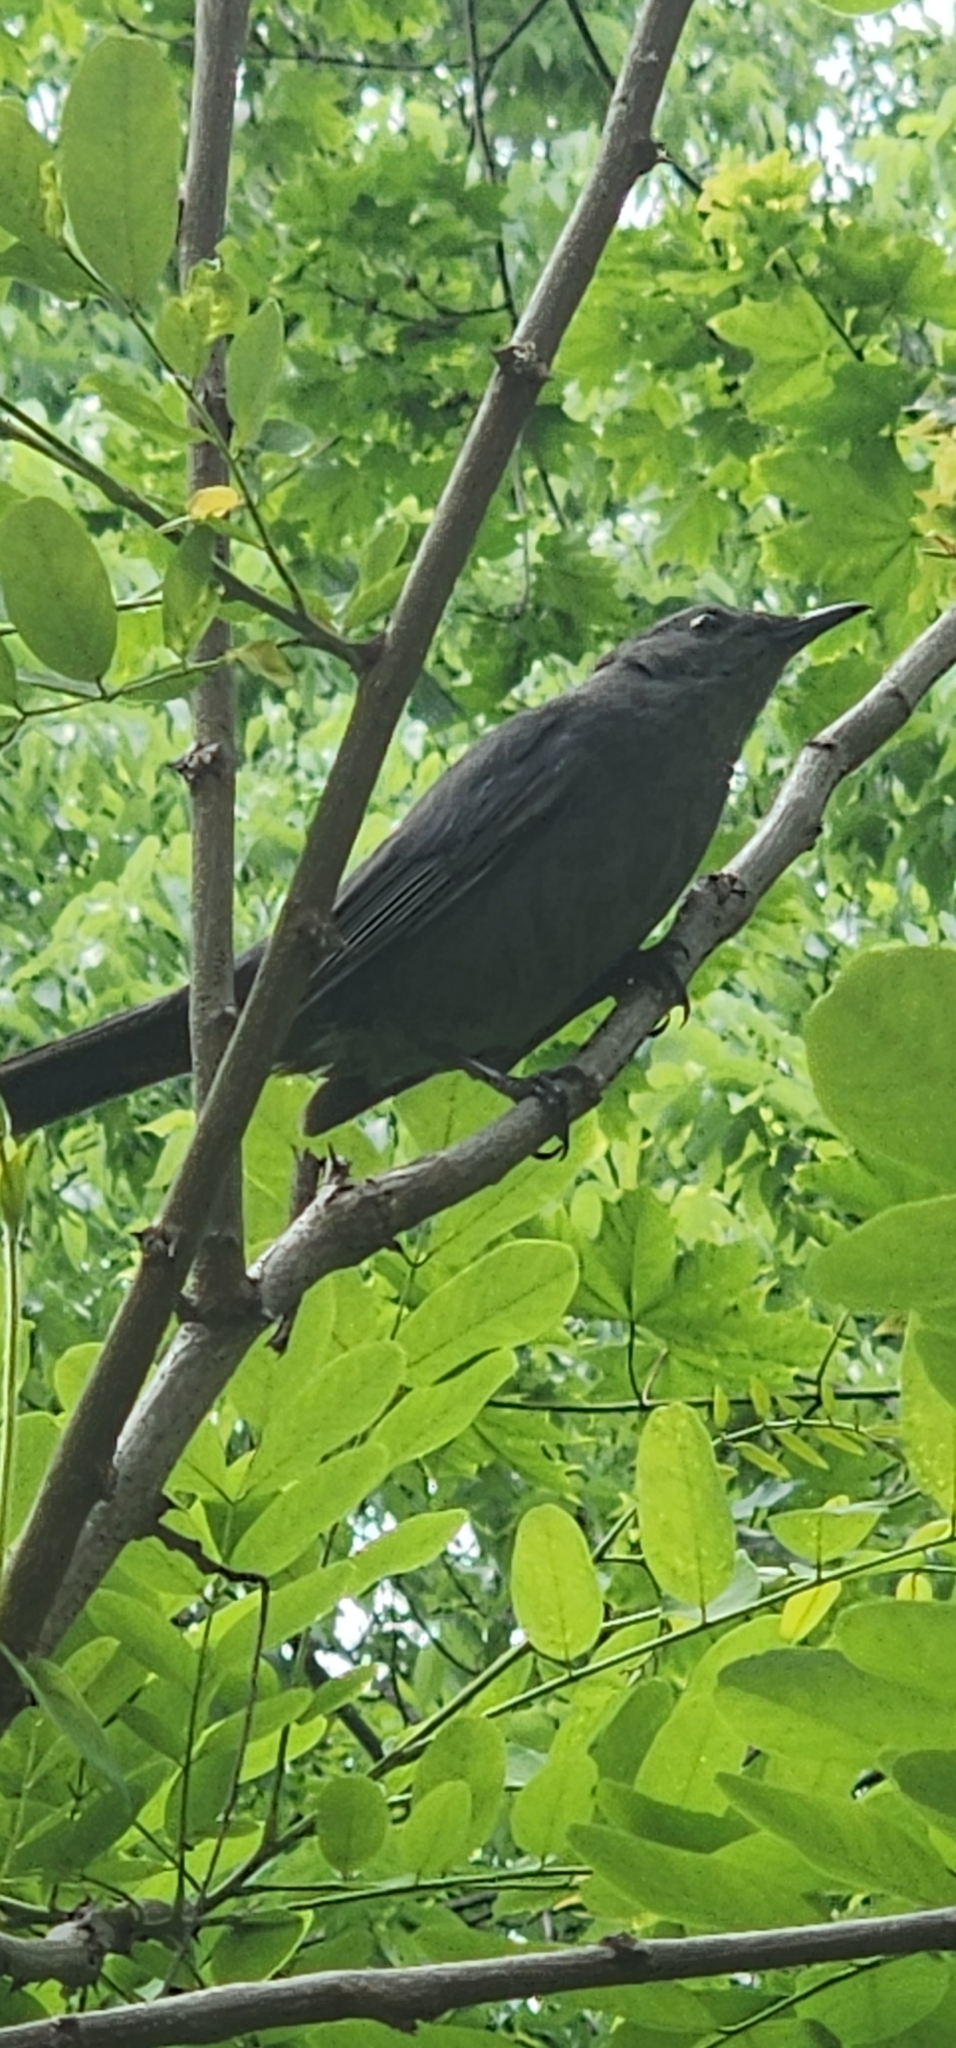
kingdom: Animalia
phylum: Chordata
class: Aves
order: Passeriformes
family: Mimidae
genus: Dumetella
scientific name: Dumetella carolinensis
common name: Gray catbird
